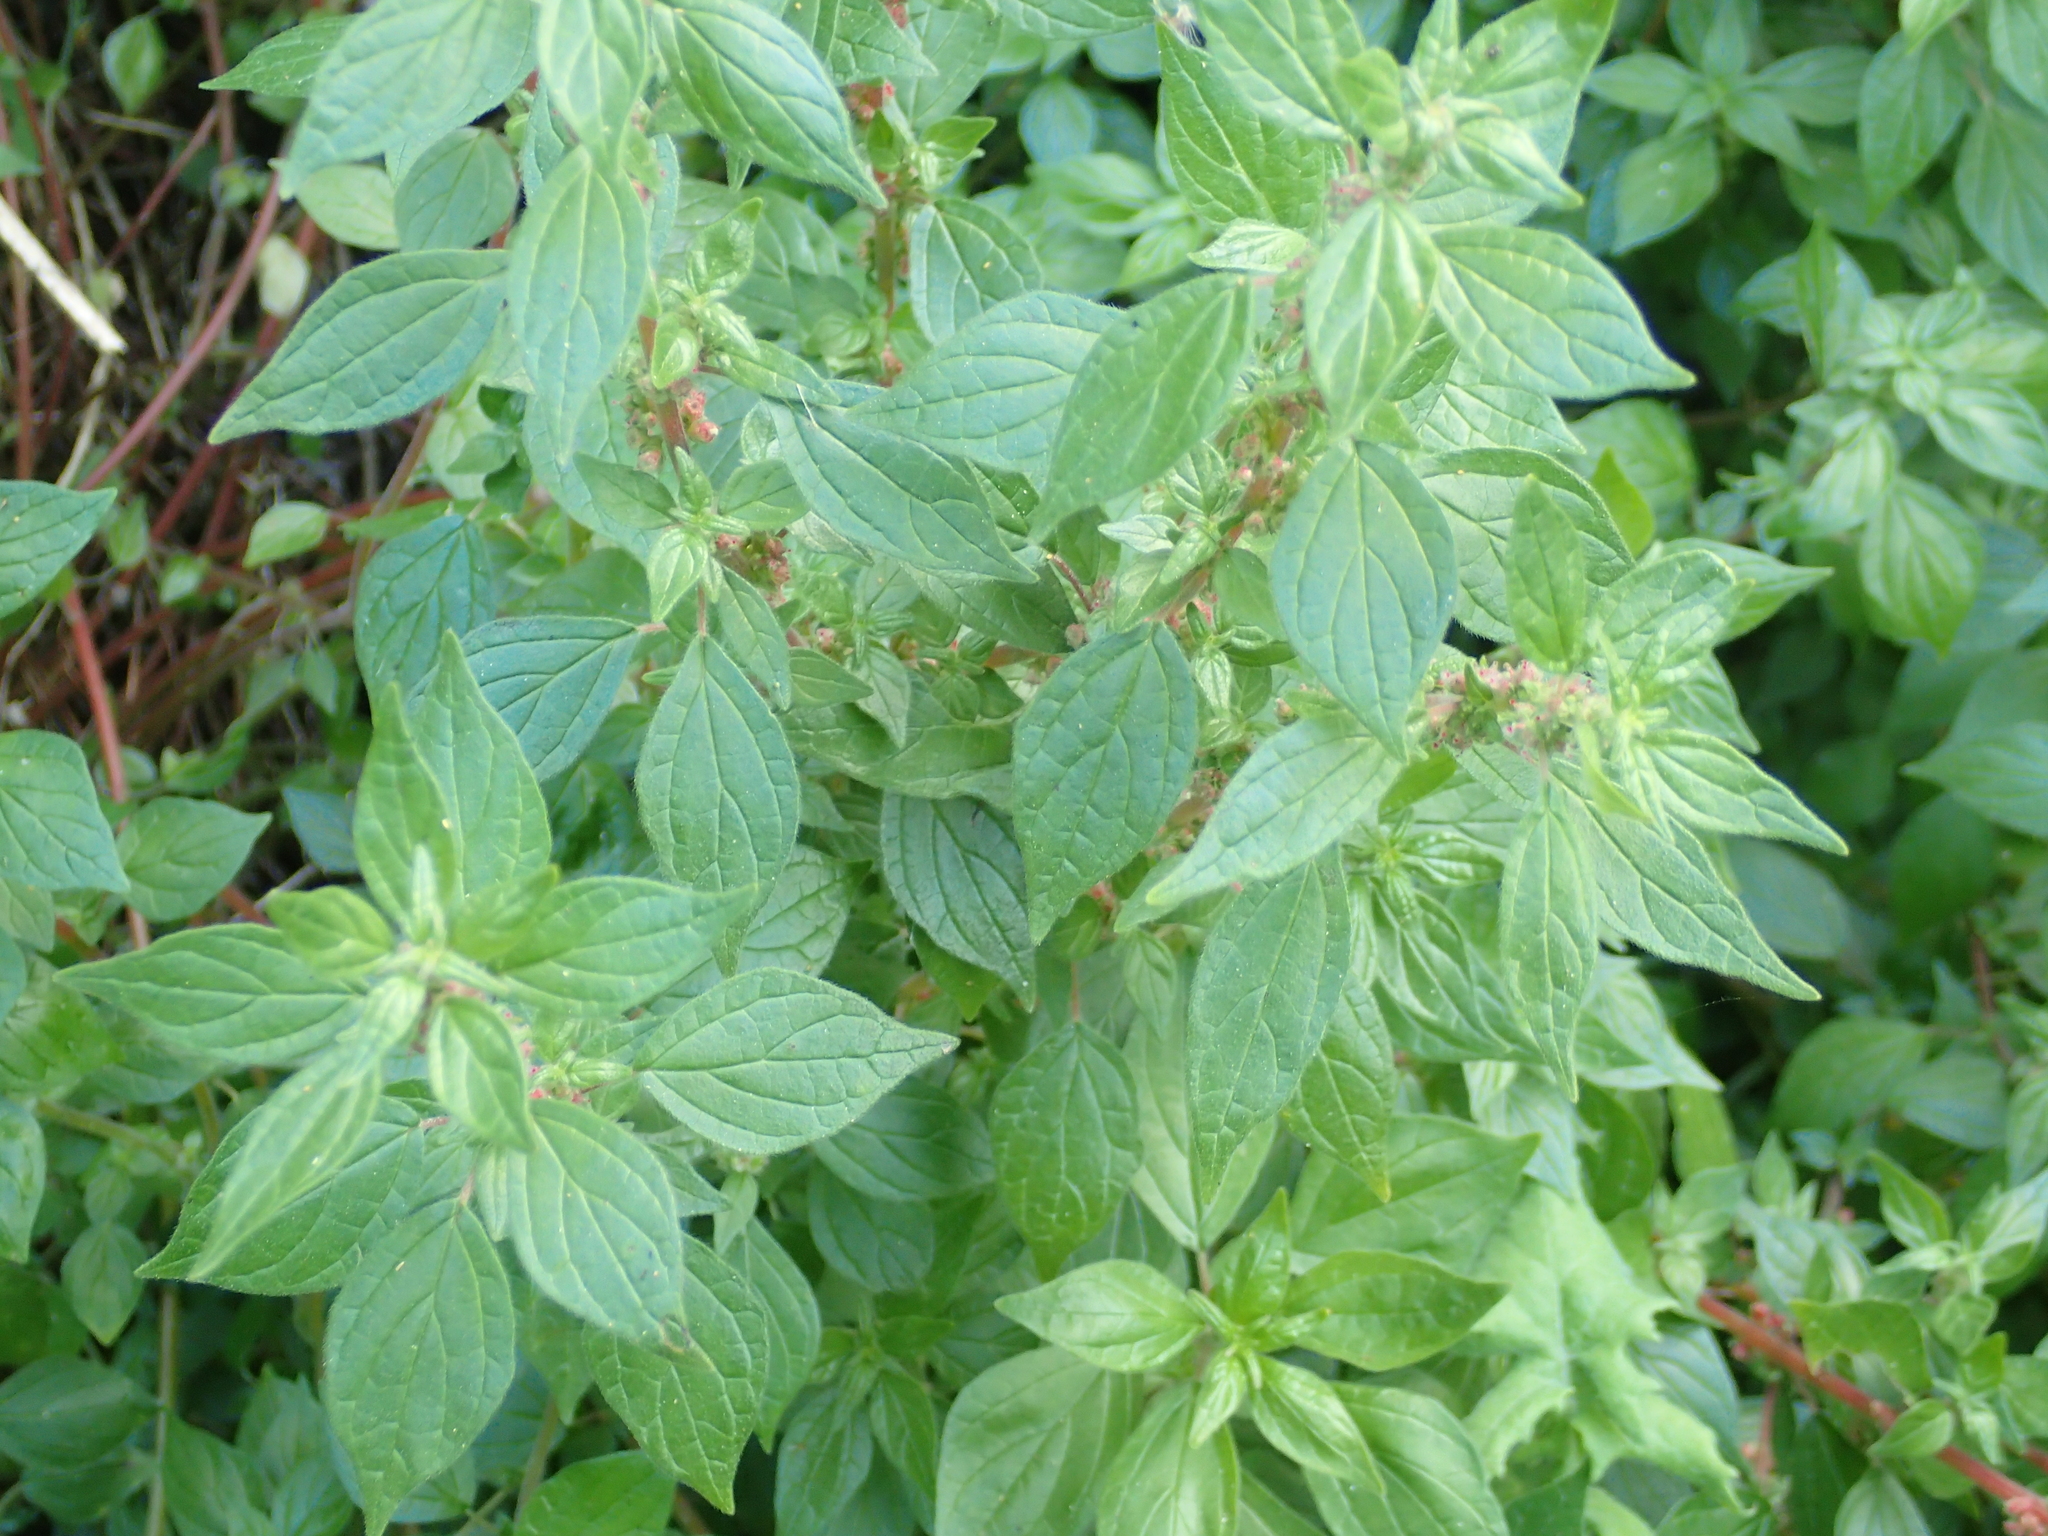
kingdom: Plantae
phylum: Tracheophyta
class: Magnoliopsida
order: Rosales
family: Urticaceae
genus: Parietaria
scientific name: Parietaria judaica
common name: Pellitory-of-the-wall
